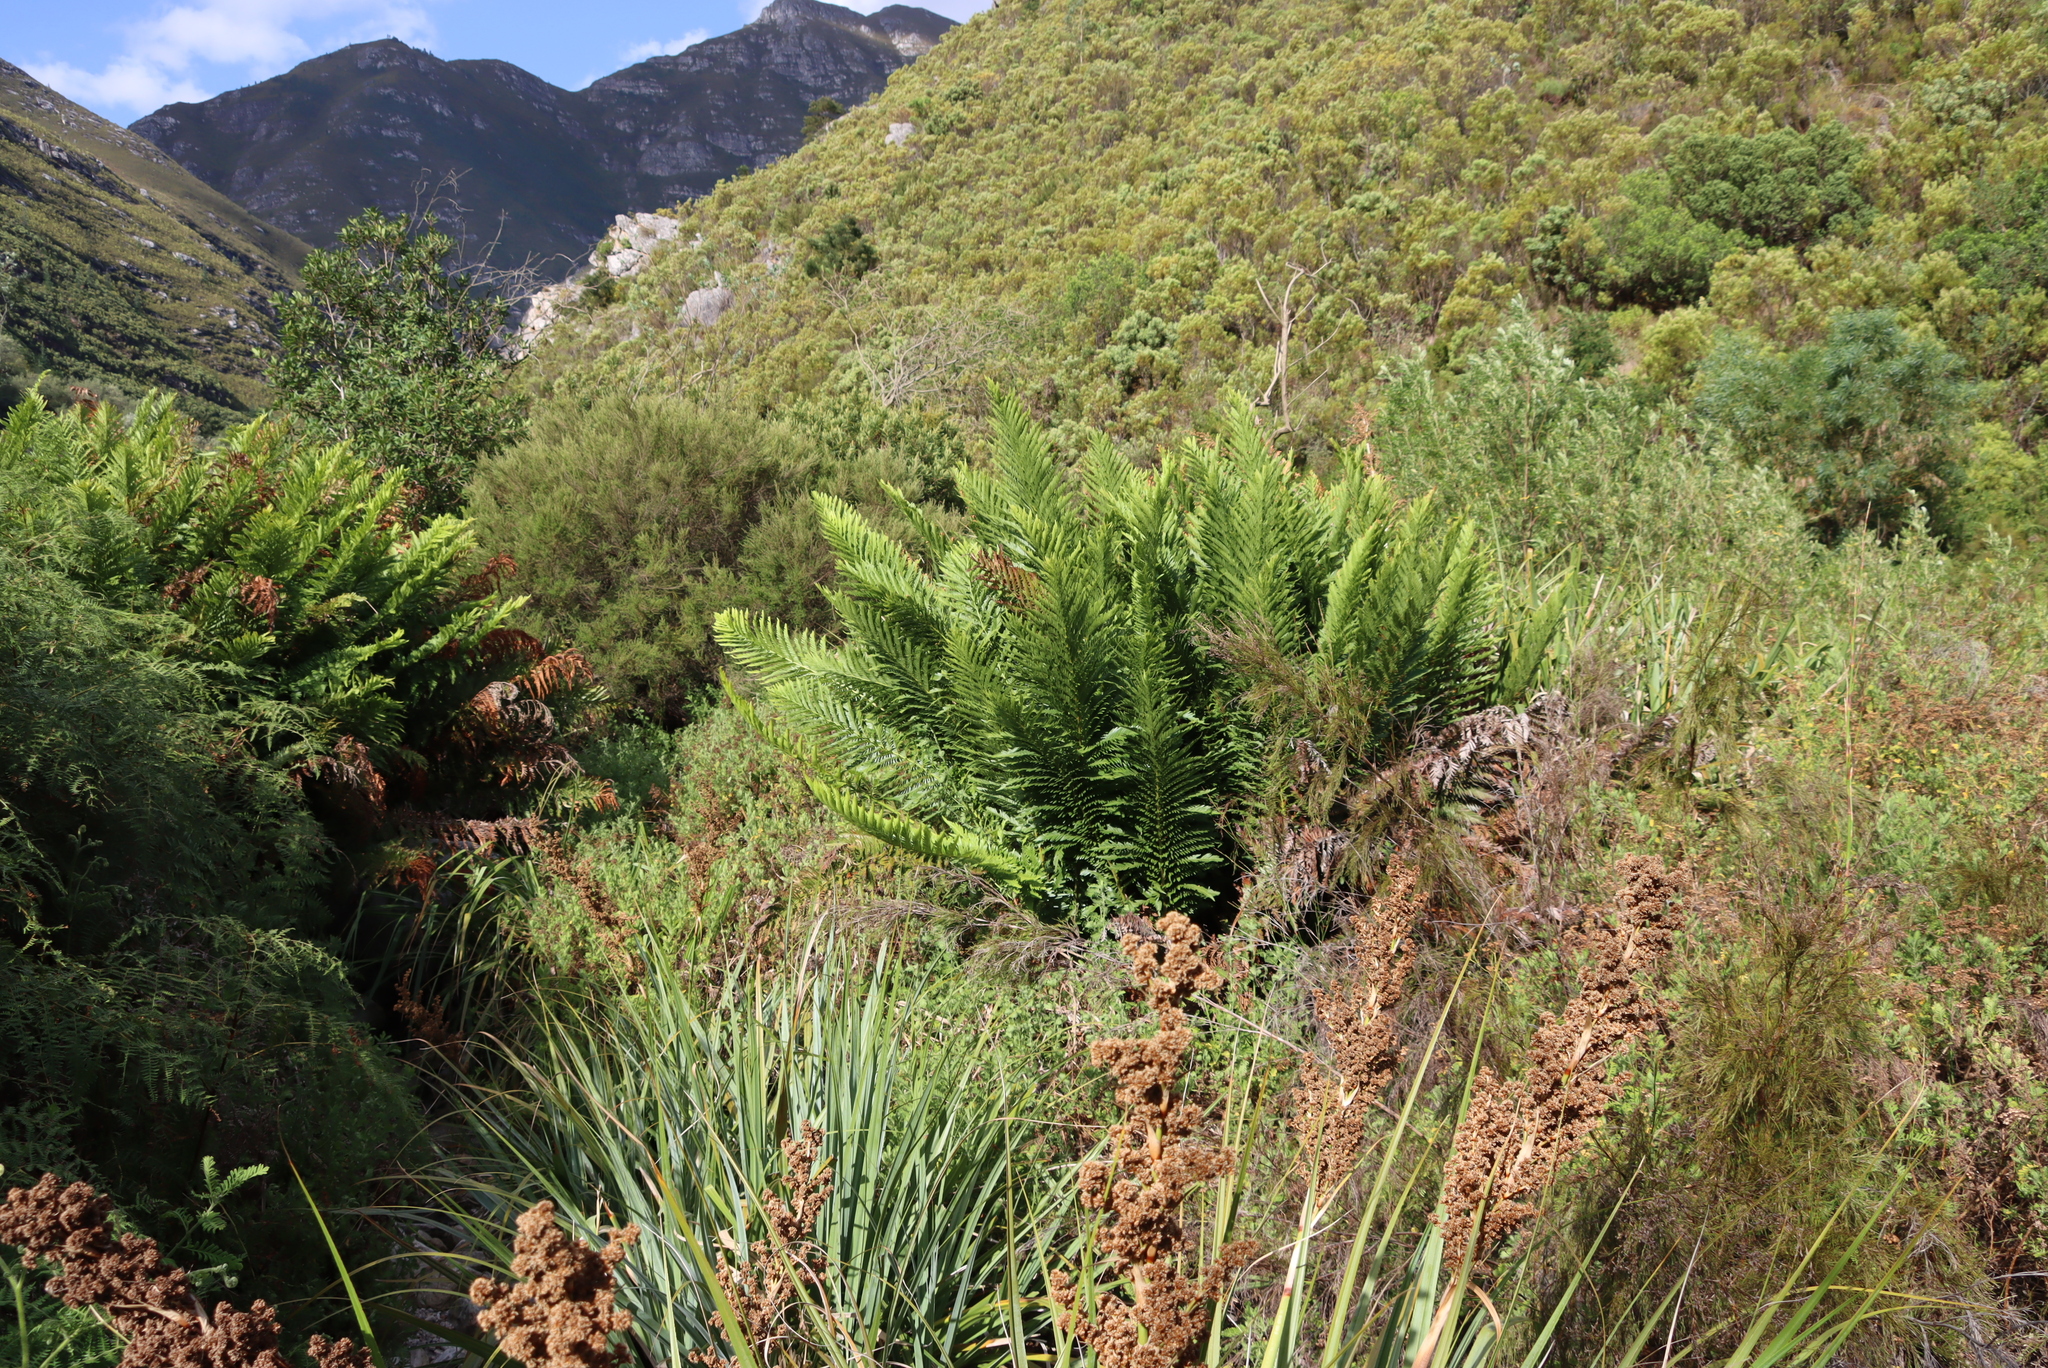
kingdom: Plantae
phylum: Tracheophyta
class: Polypodiopsida
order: Osmundales
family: Osmundaceae
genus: Todea
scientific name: Todea barbara
